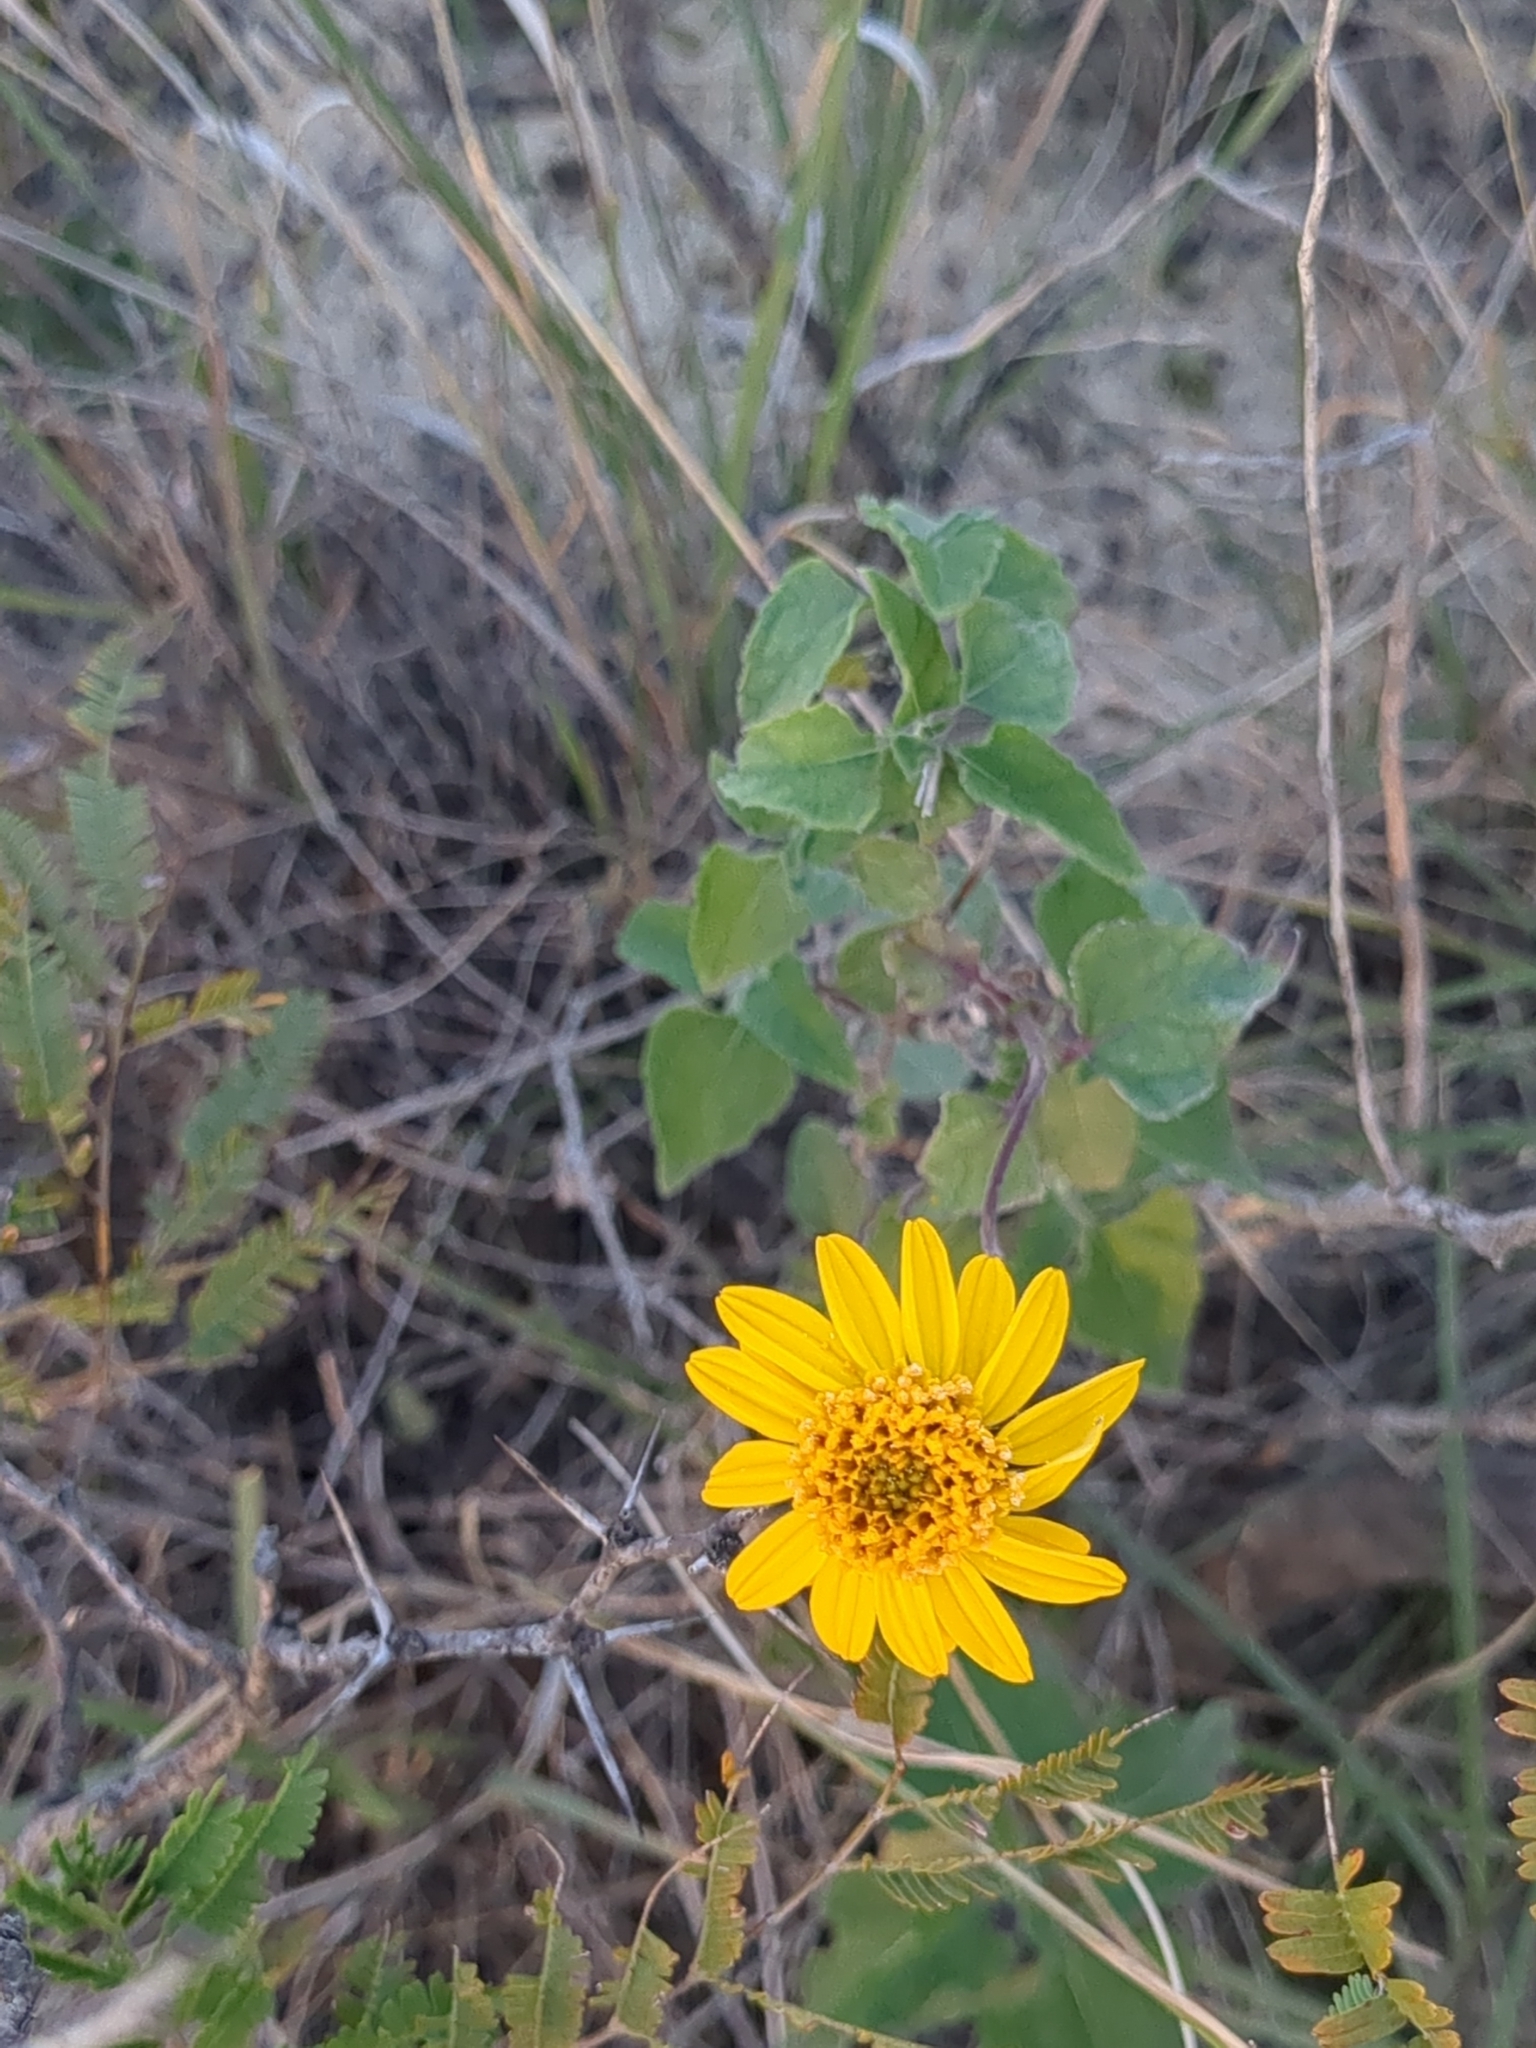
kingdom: Plantae
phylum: Tracheophyta
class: Magnoliopsida
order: Asterales
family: Asteraceae
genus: Simsia
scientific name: Simsia calva
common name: Awnless bush-sunflower
